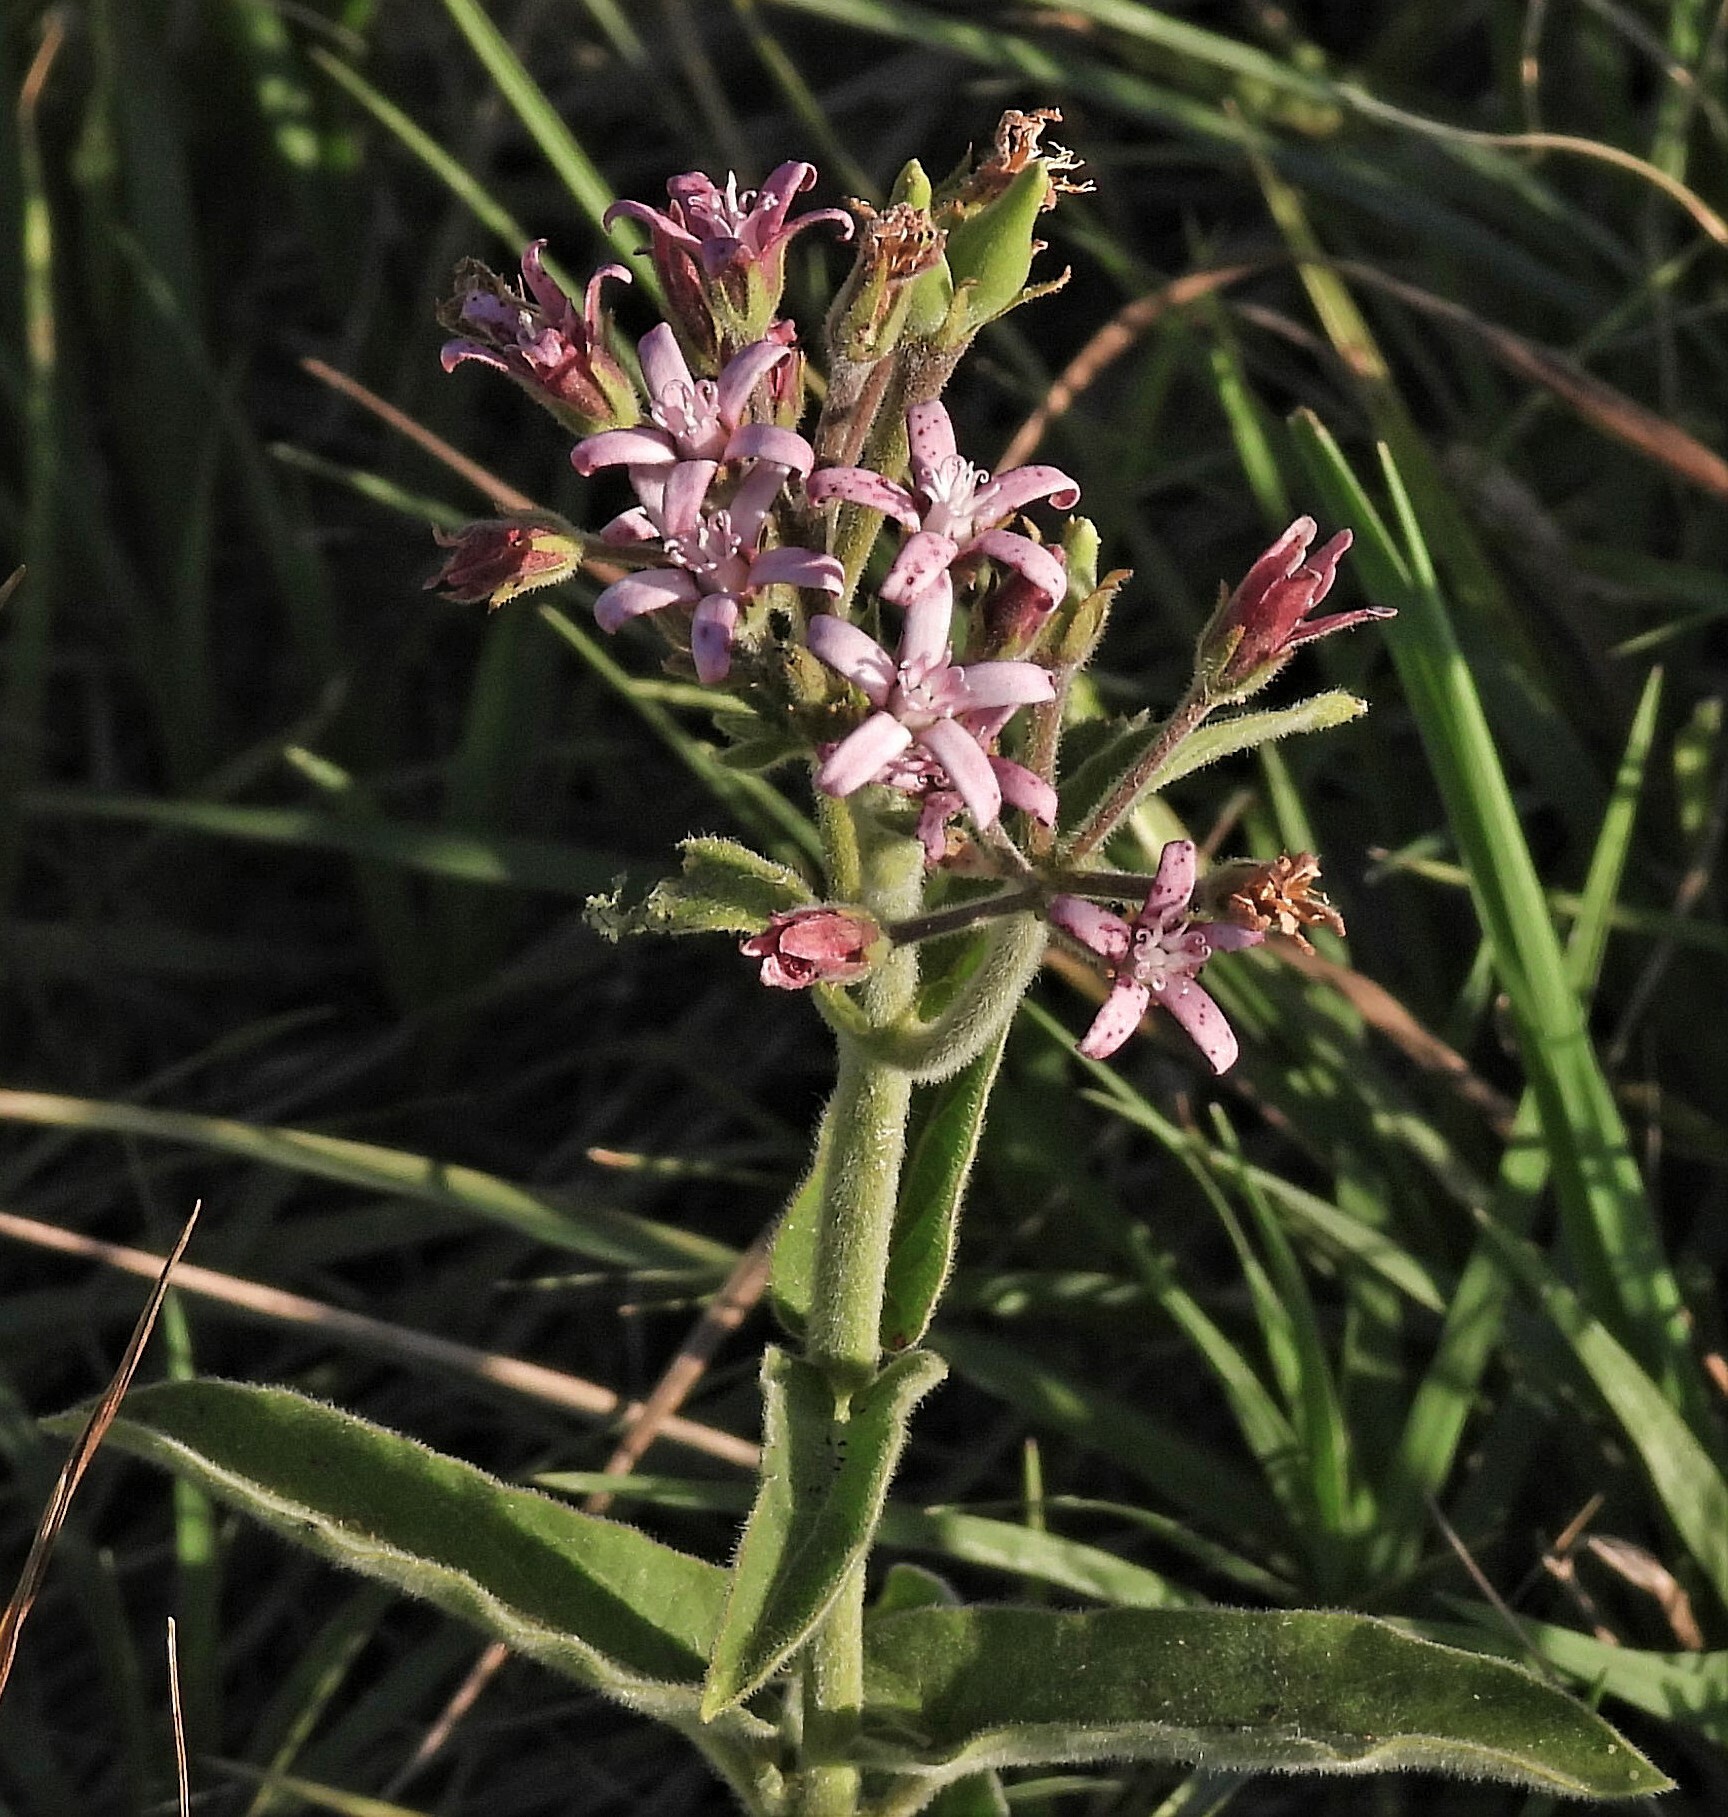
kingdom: Plantae
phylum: Tracheophyta
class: Magnoliopsida
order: Gentianales
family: Apocynaceae
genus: Oxypetalum
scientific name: Oxypetalum solanoides
